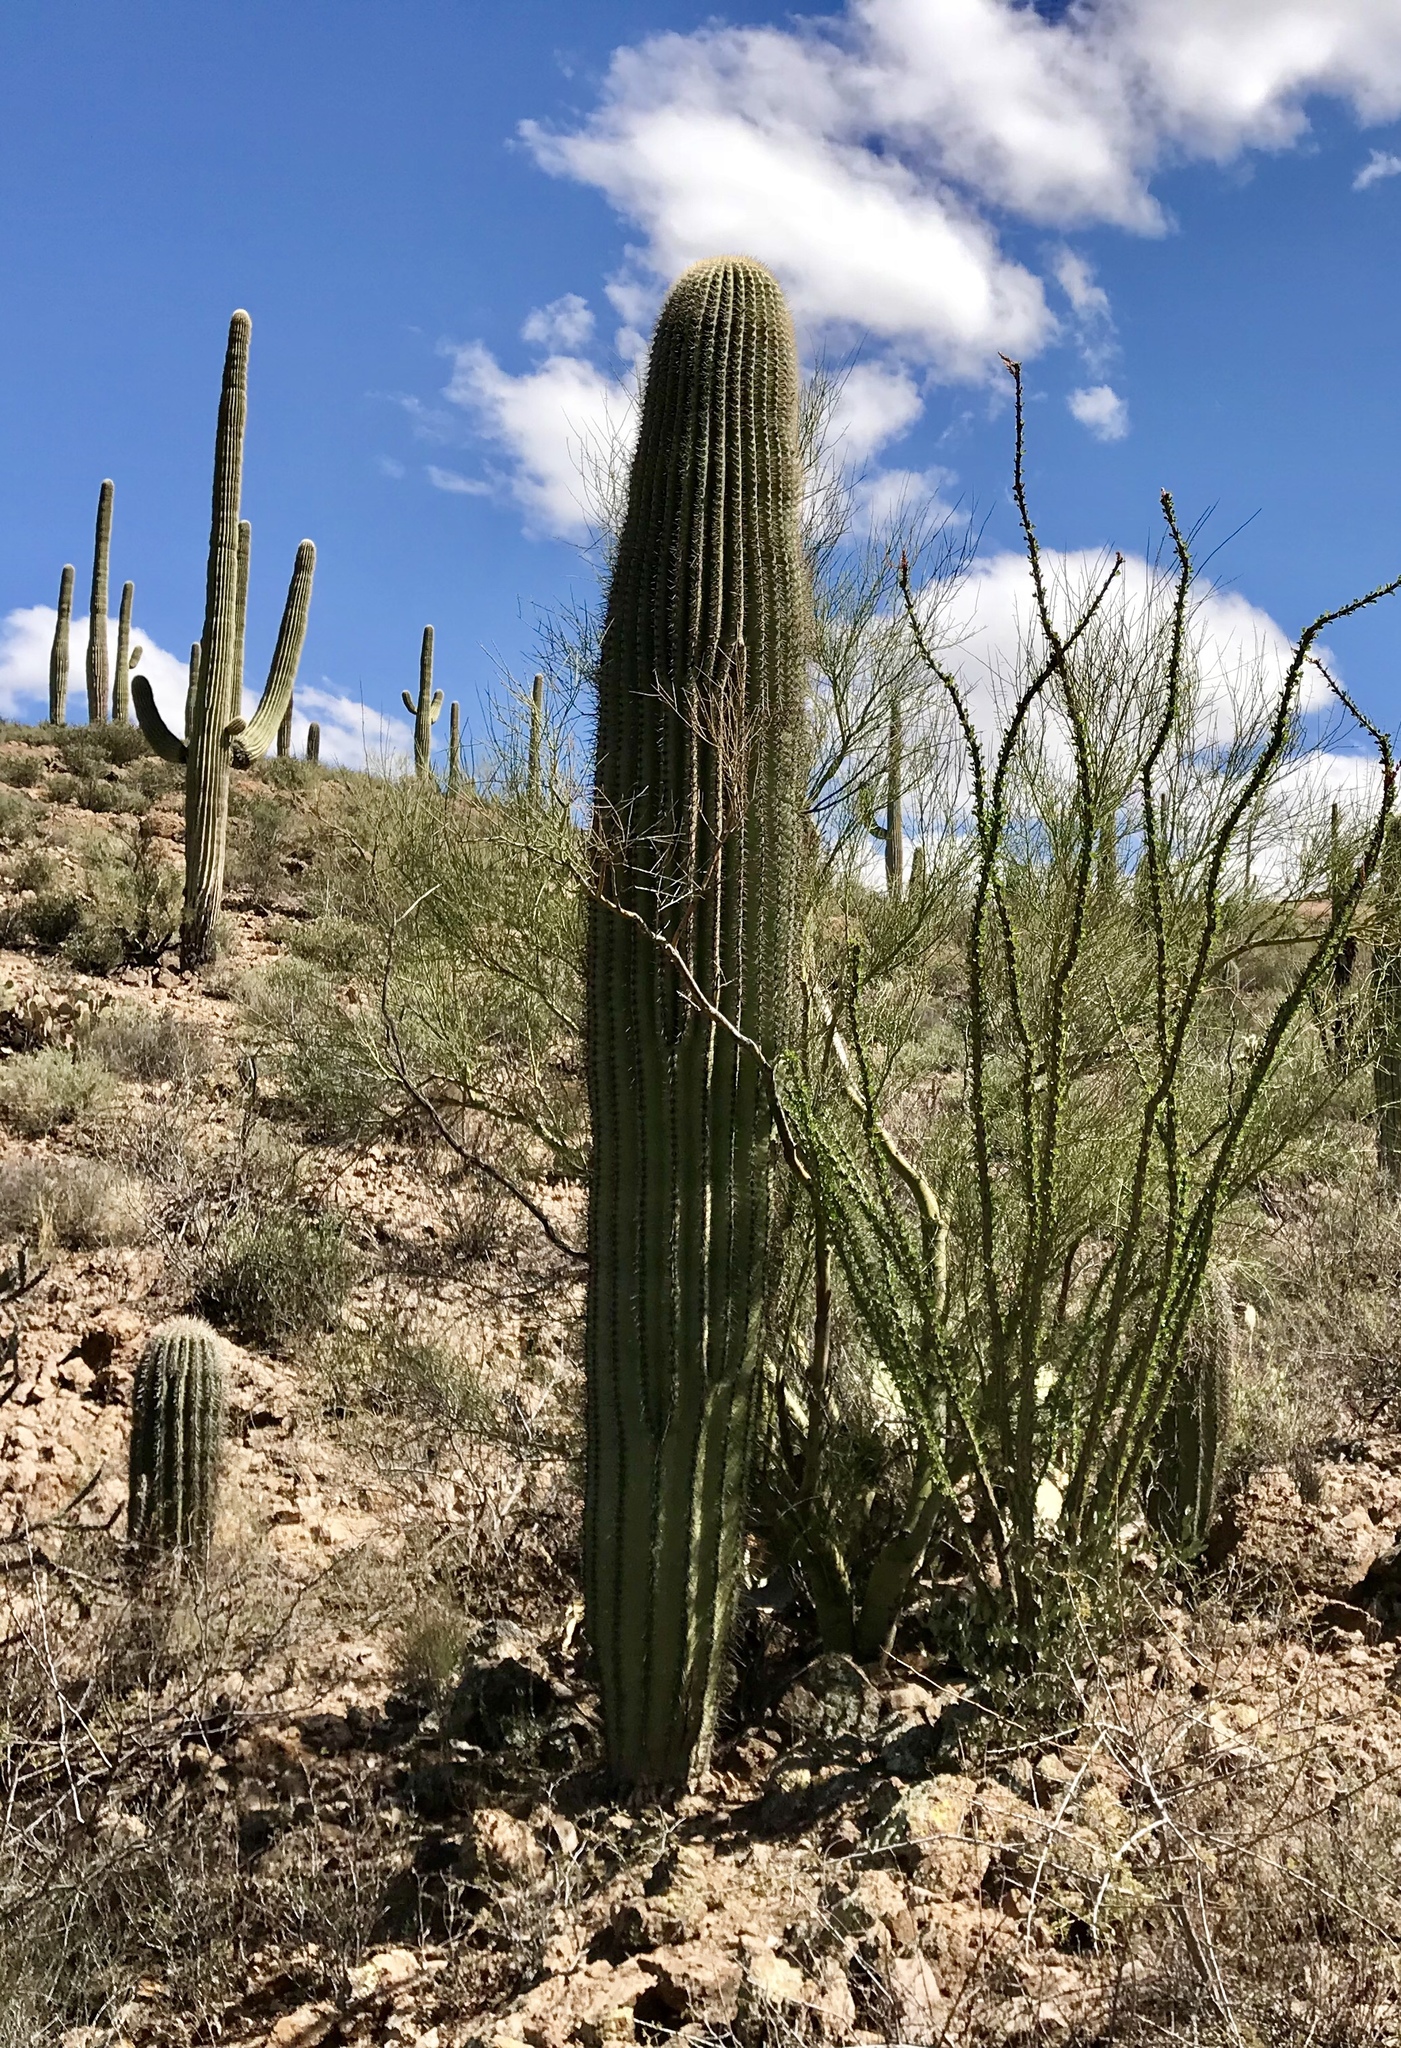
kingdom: Plantae
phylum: Tracheophyta
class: Magnoliopsida
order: Caryophyllales
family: Cactaceae
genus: Carnegiea
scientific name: Carnegiea gigantea
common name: Saguaro
